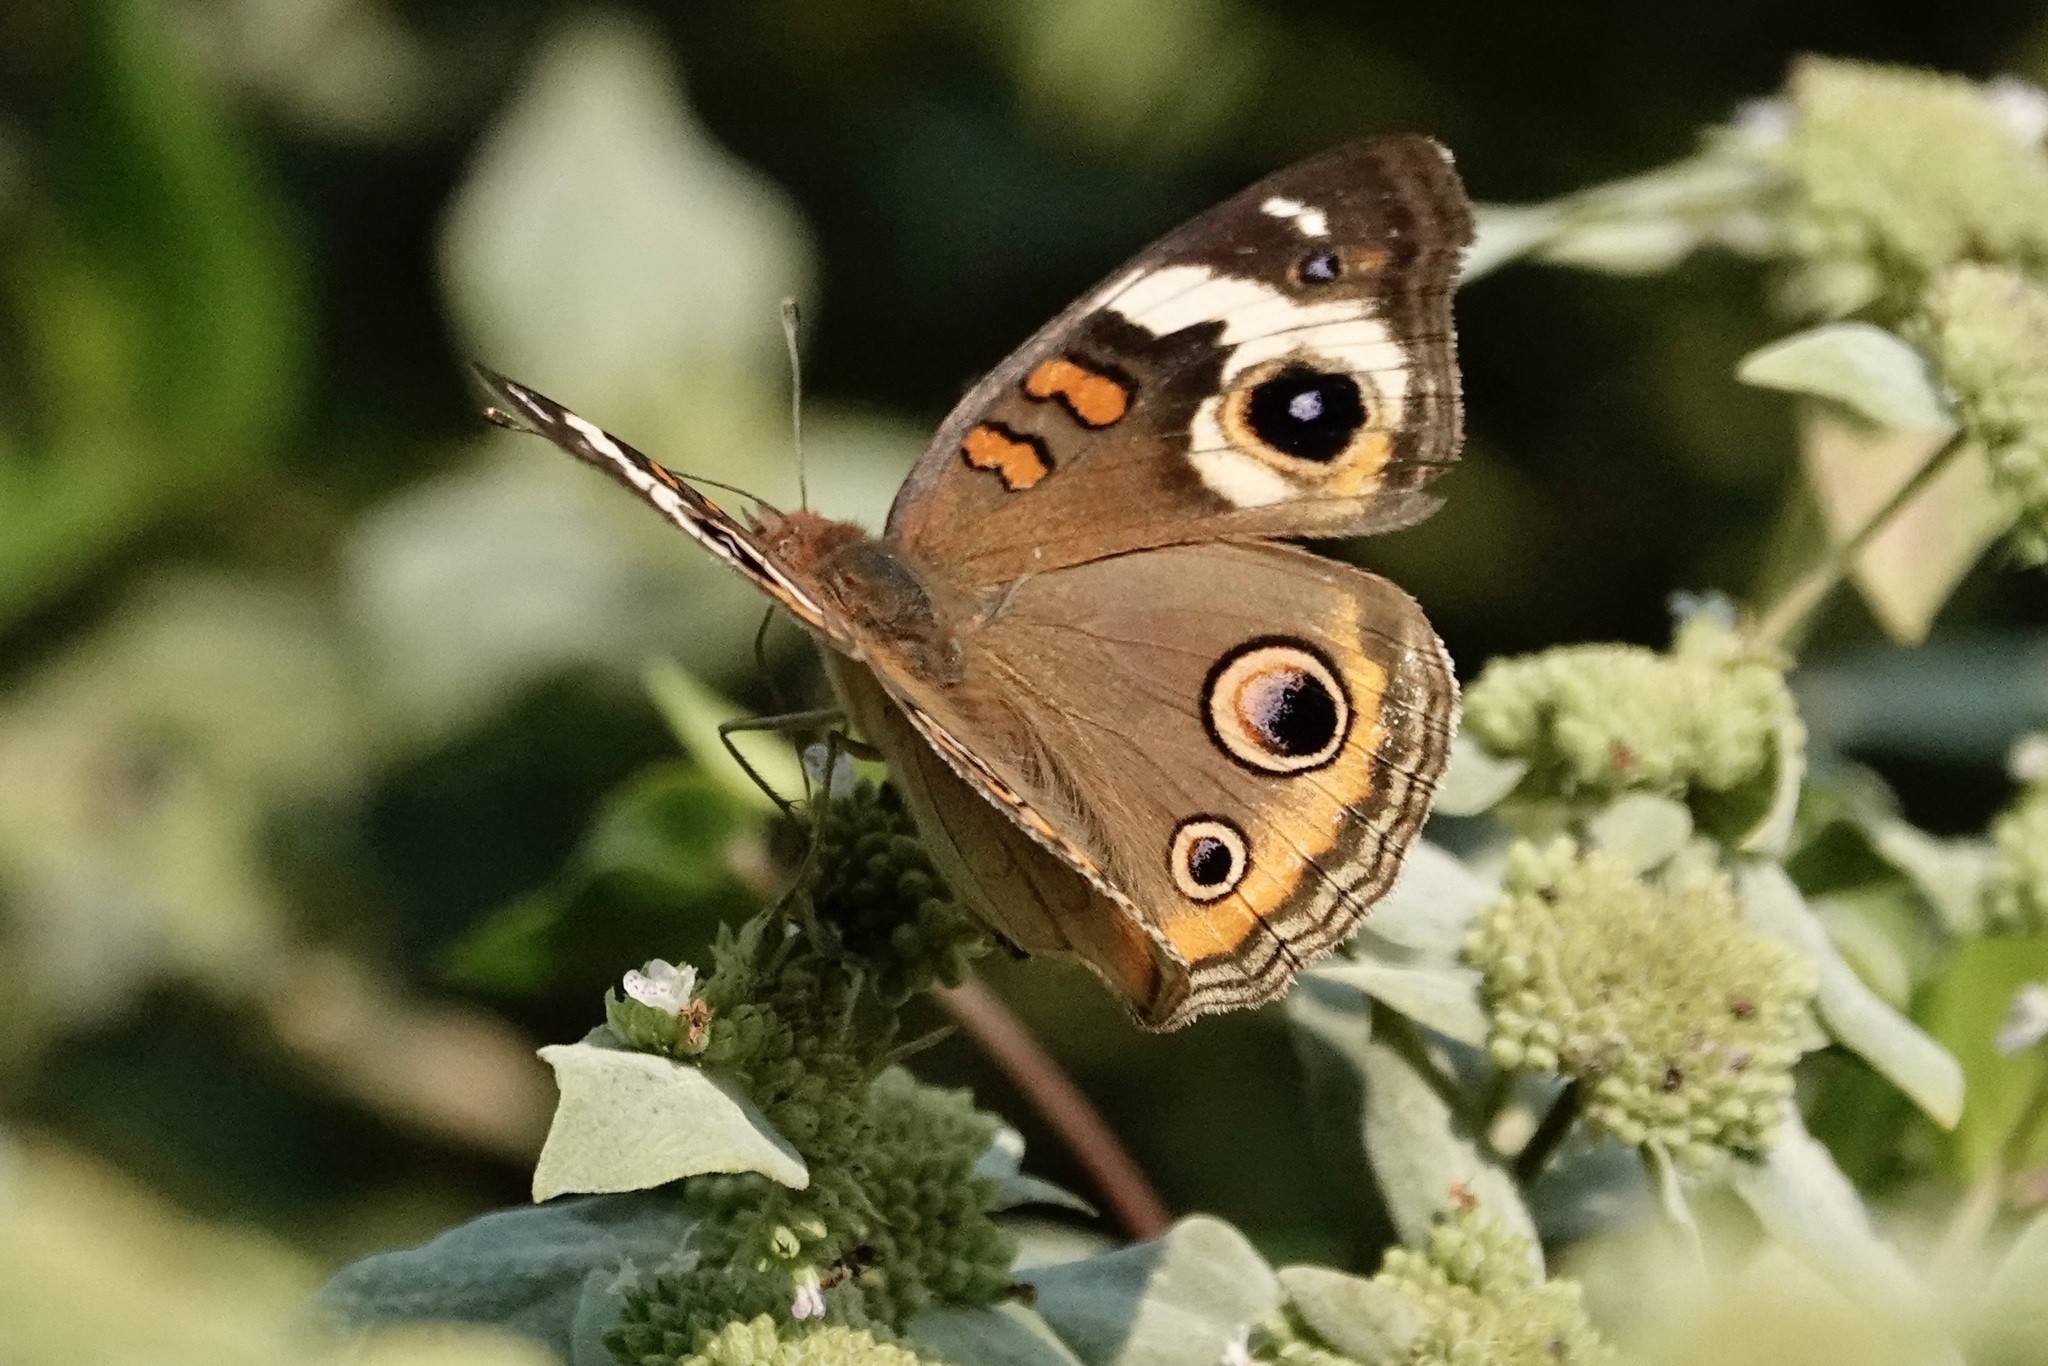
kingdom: Animalia
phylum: Arthropoda
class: Insecta
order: Lepidoptera
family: Nymphalidae
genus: Junonia
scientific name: Junonia coenia
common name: Common buckeye
